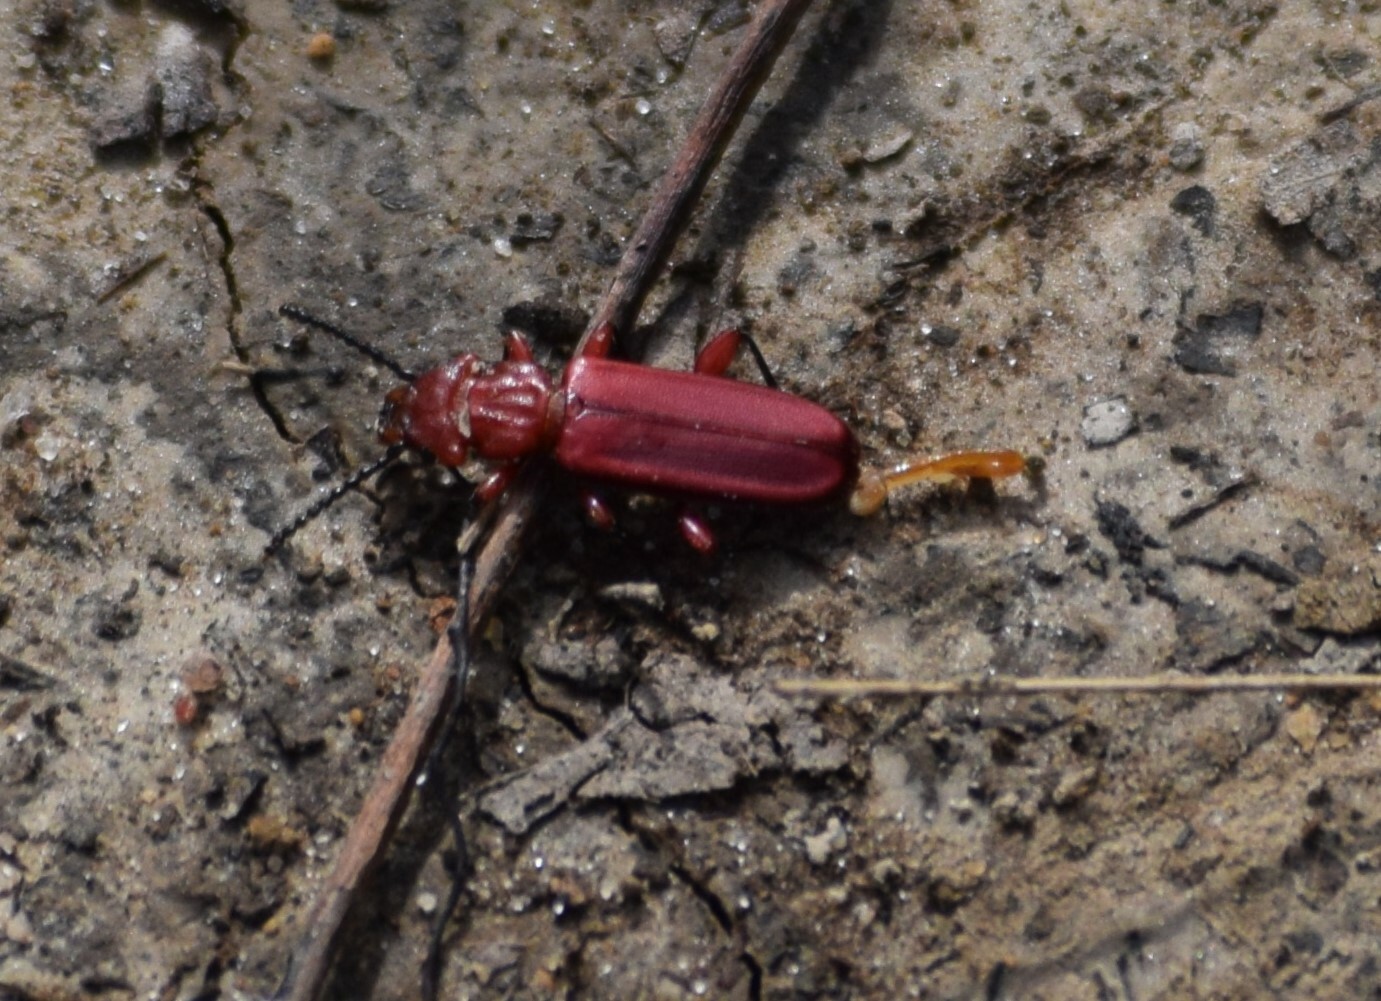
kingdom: Animalia
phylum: Arthropoda
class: Insecta
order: Coleoptera
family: Cucujidae
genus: Cucujus
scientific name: Cucujus clavipes
